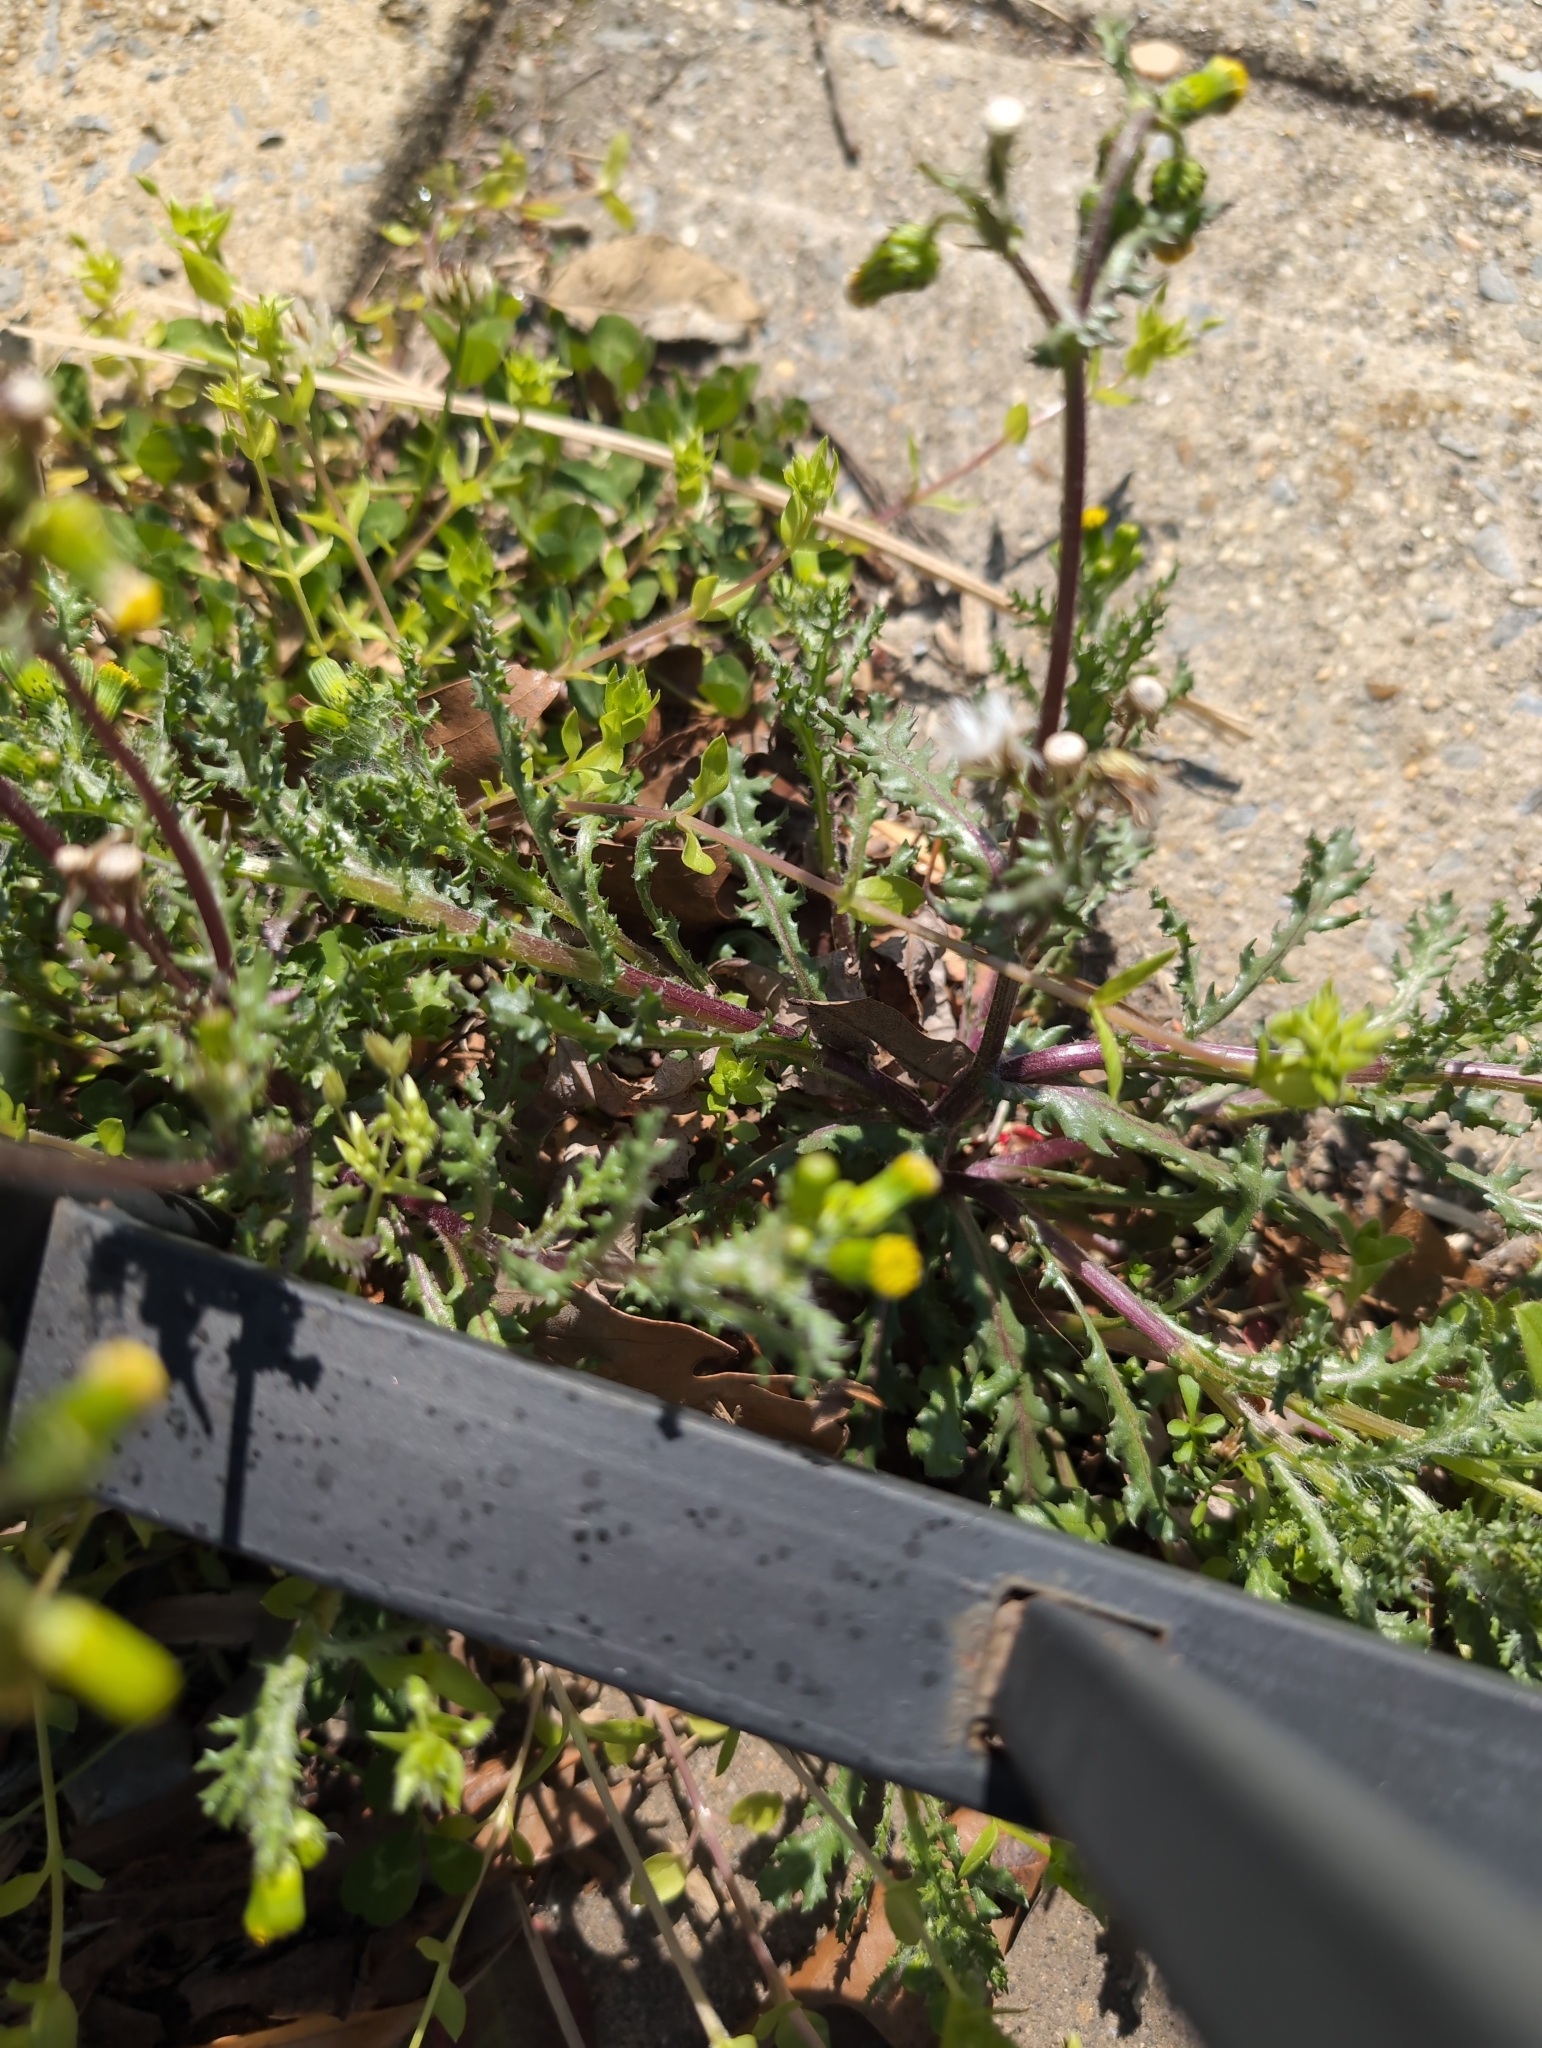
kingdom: Plantae
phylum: Tracheophyta
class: Magnoliopsida
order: Asterales
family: Asteraceae
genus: Senecio
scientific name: Senecio vulgaris
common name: Old-man-in-the-spring
